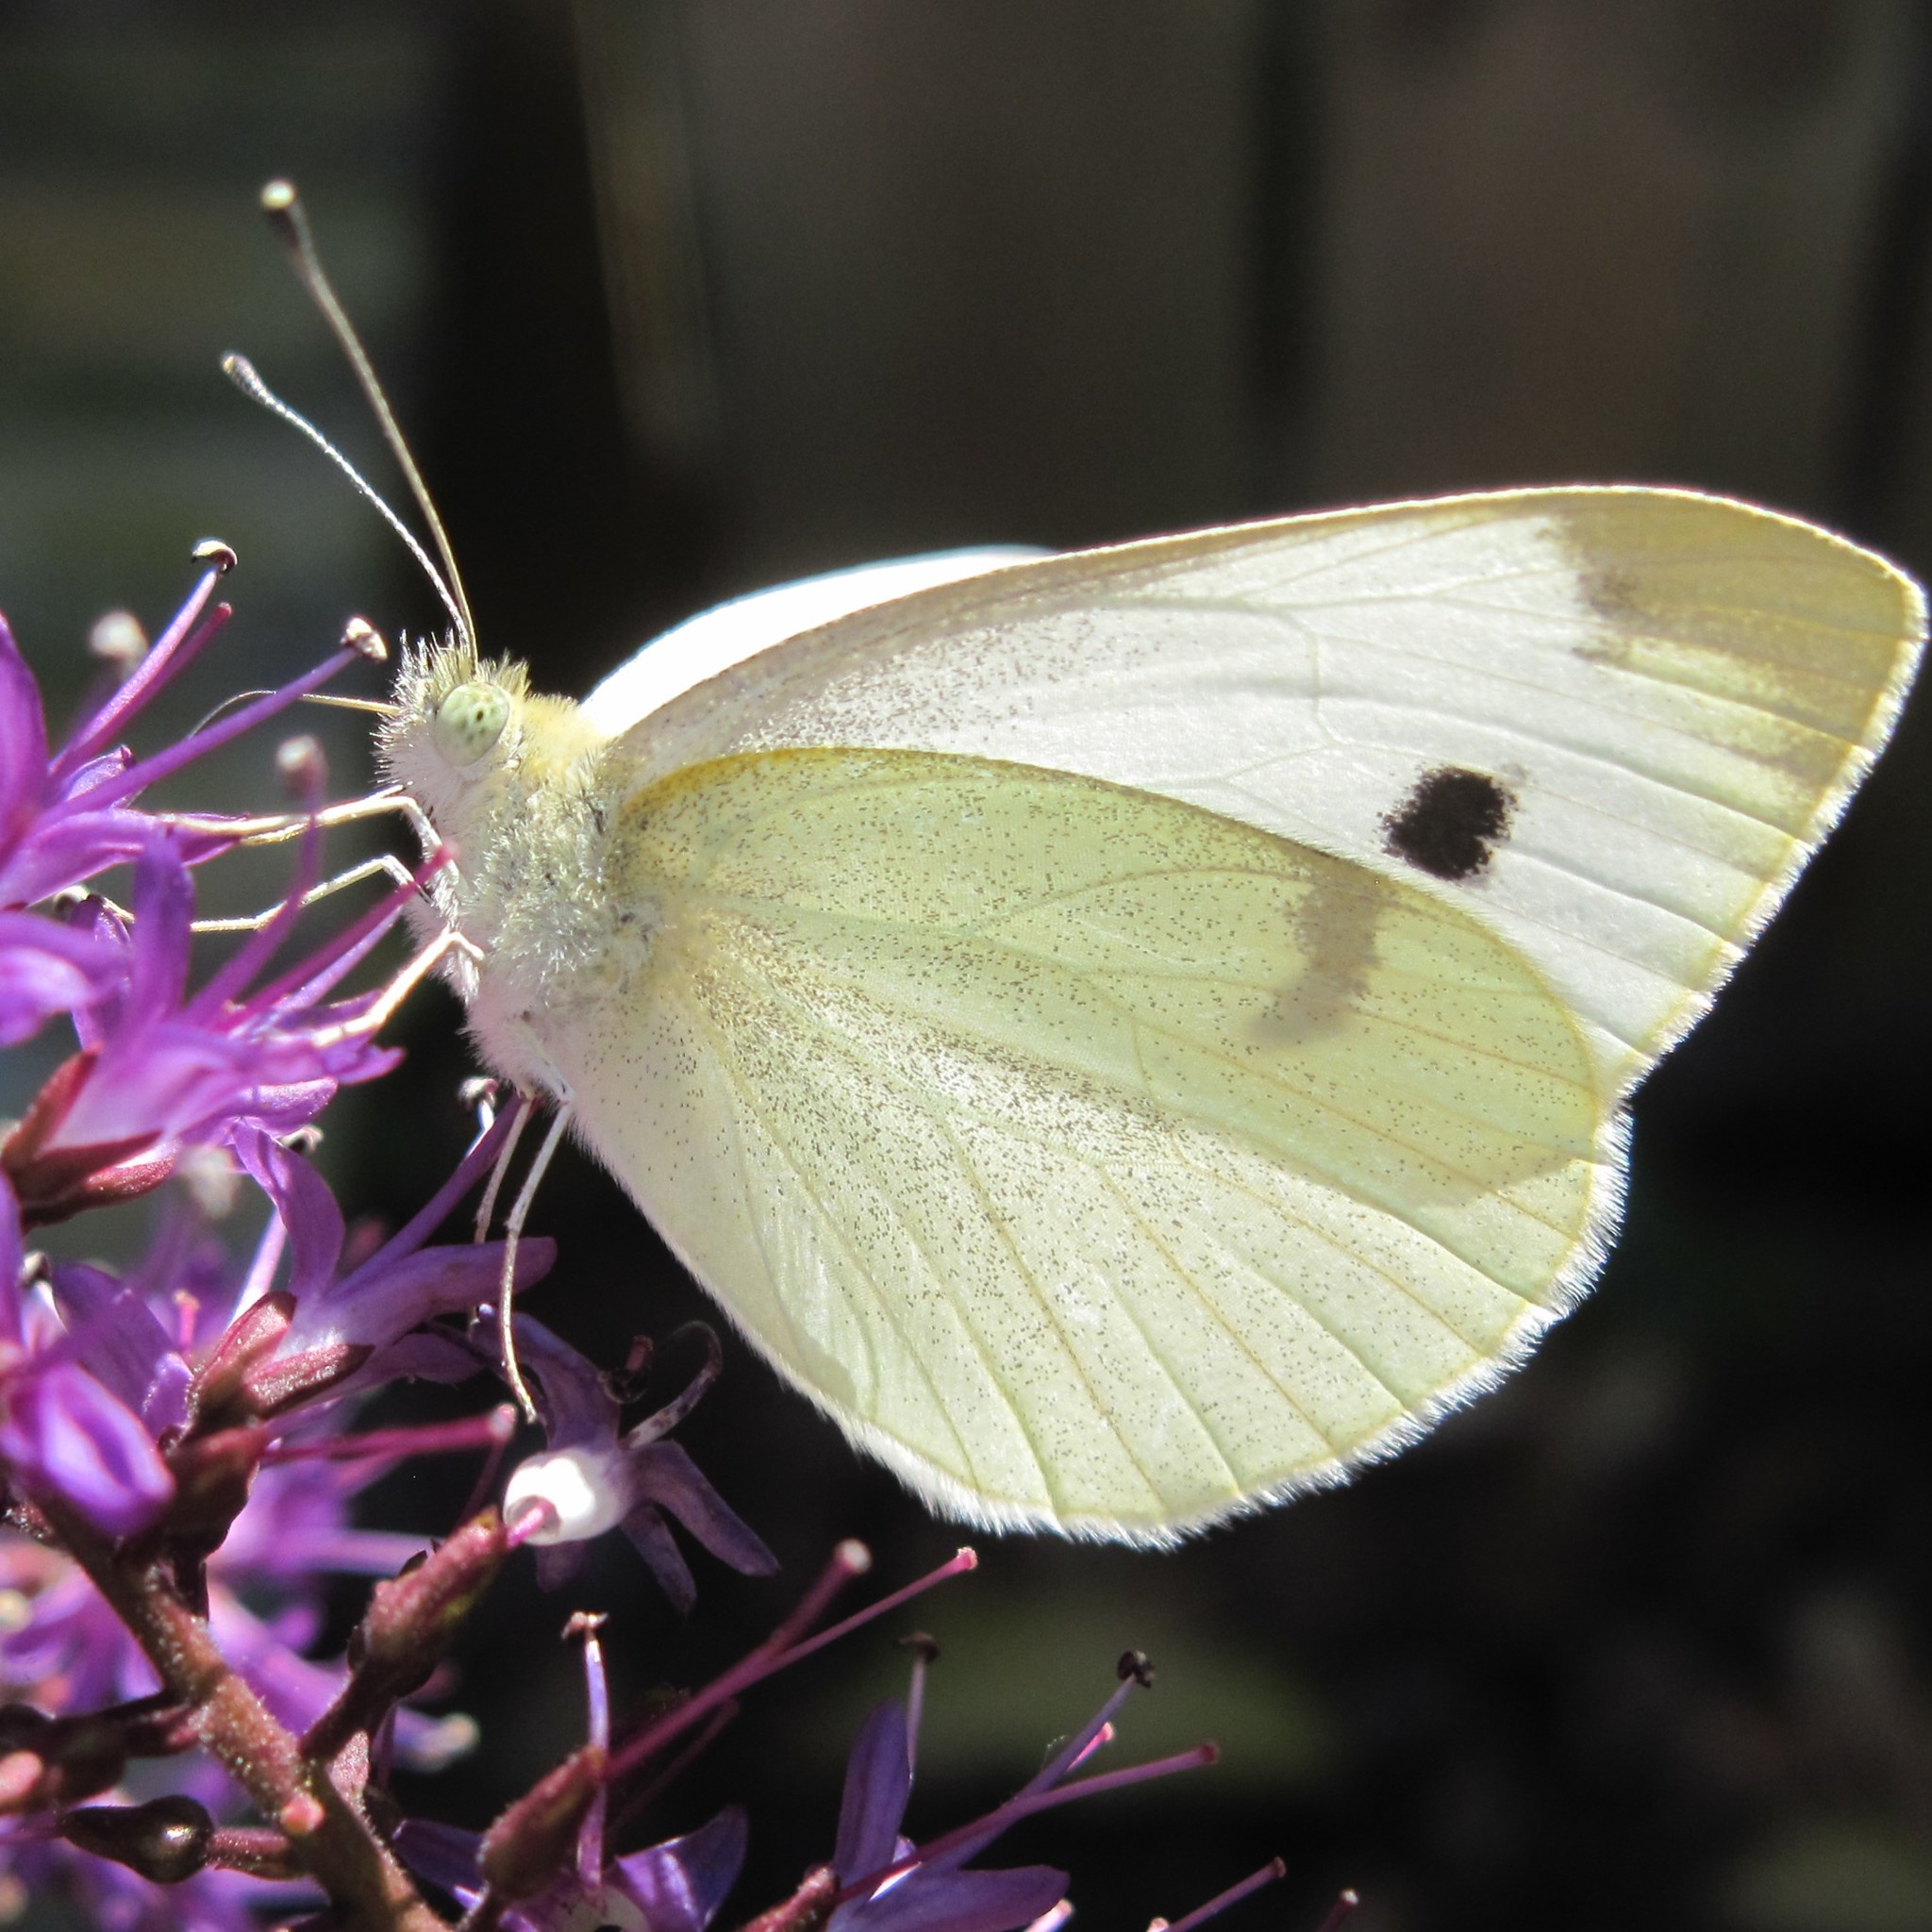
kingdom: Animalia
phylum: Arthropoda
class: Insecta
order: Lepidoptera
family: Pieridae
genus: Pieris
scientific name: Pieris rapae
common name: Small white
